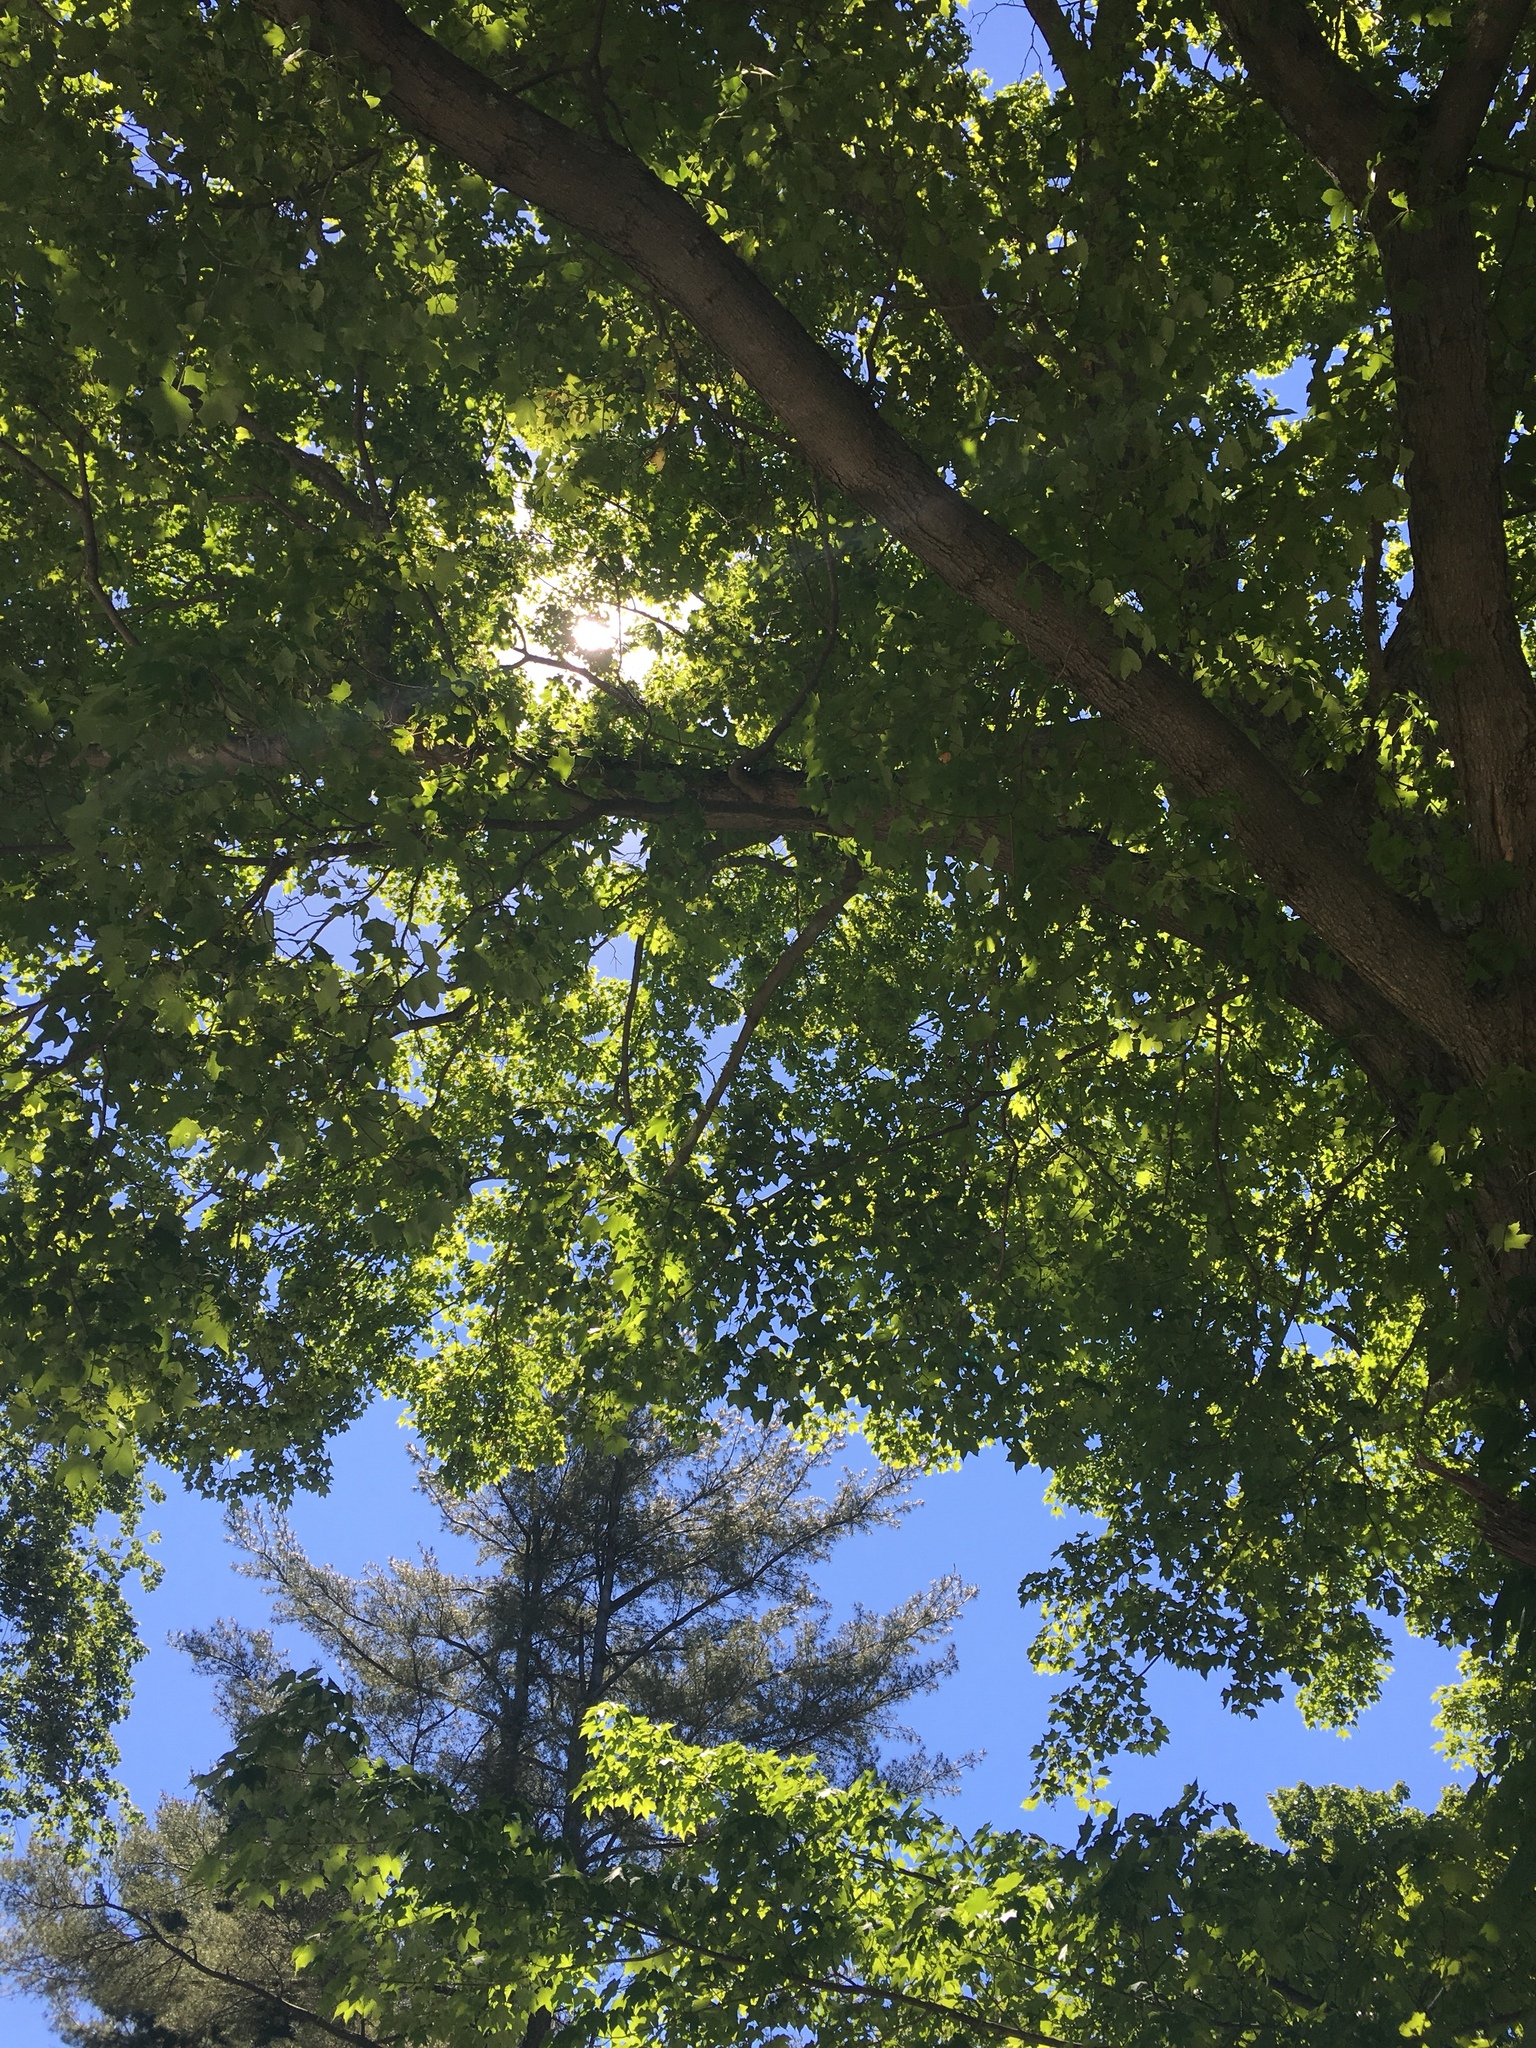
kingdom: Plantae
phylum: Tracheophyta
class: Magnoliopsida
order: Sapindales
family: Sapindaceae
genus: Acer
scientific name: Acer
